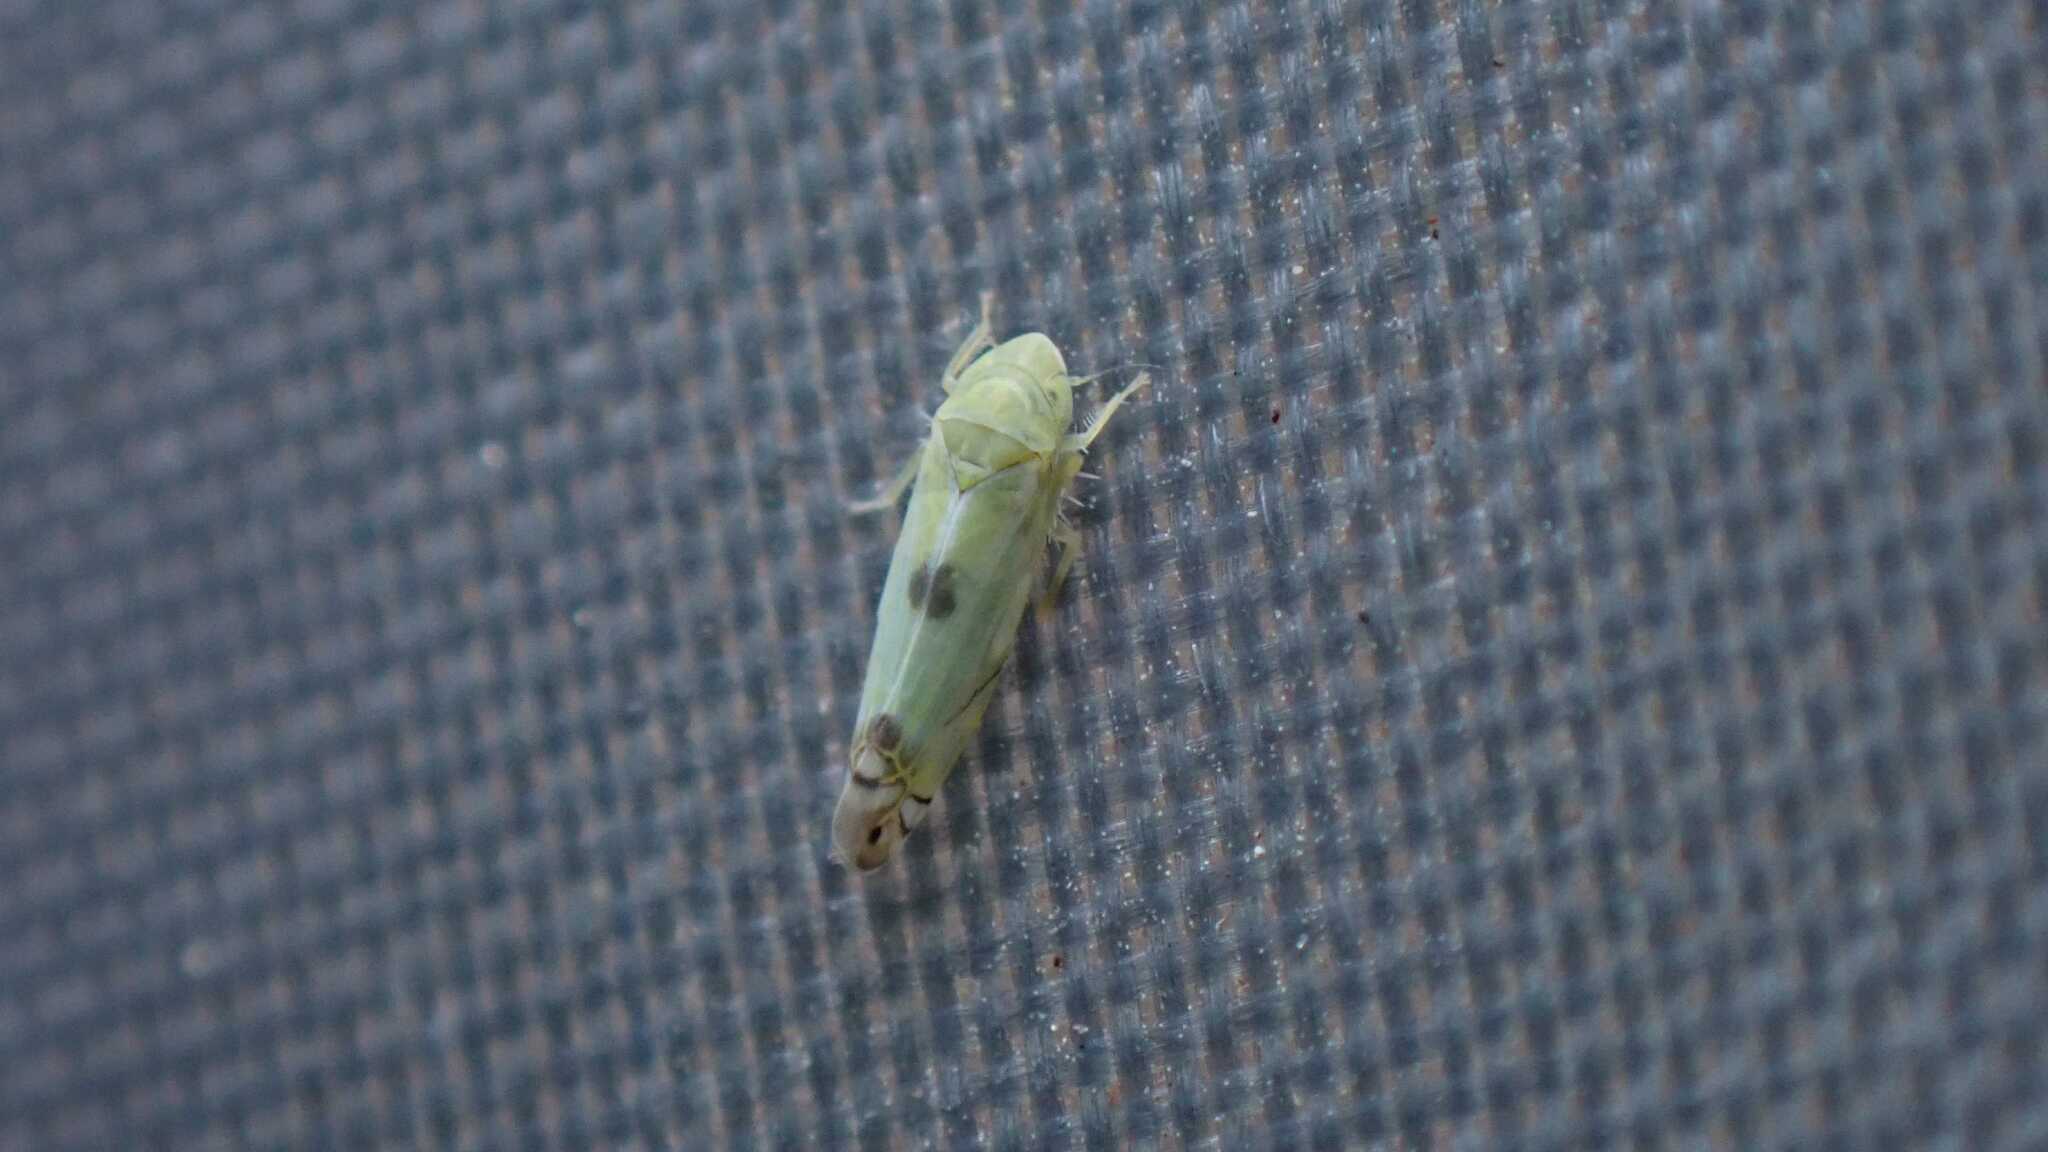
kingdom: Animalia
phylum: Arthropoda
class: Insecta
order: Hemiptera
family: Cicadellidae
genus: Zyginella
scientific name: Zyginella pulchra
